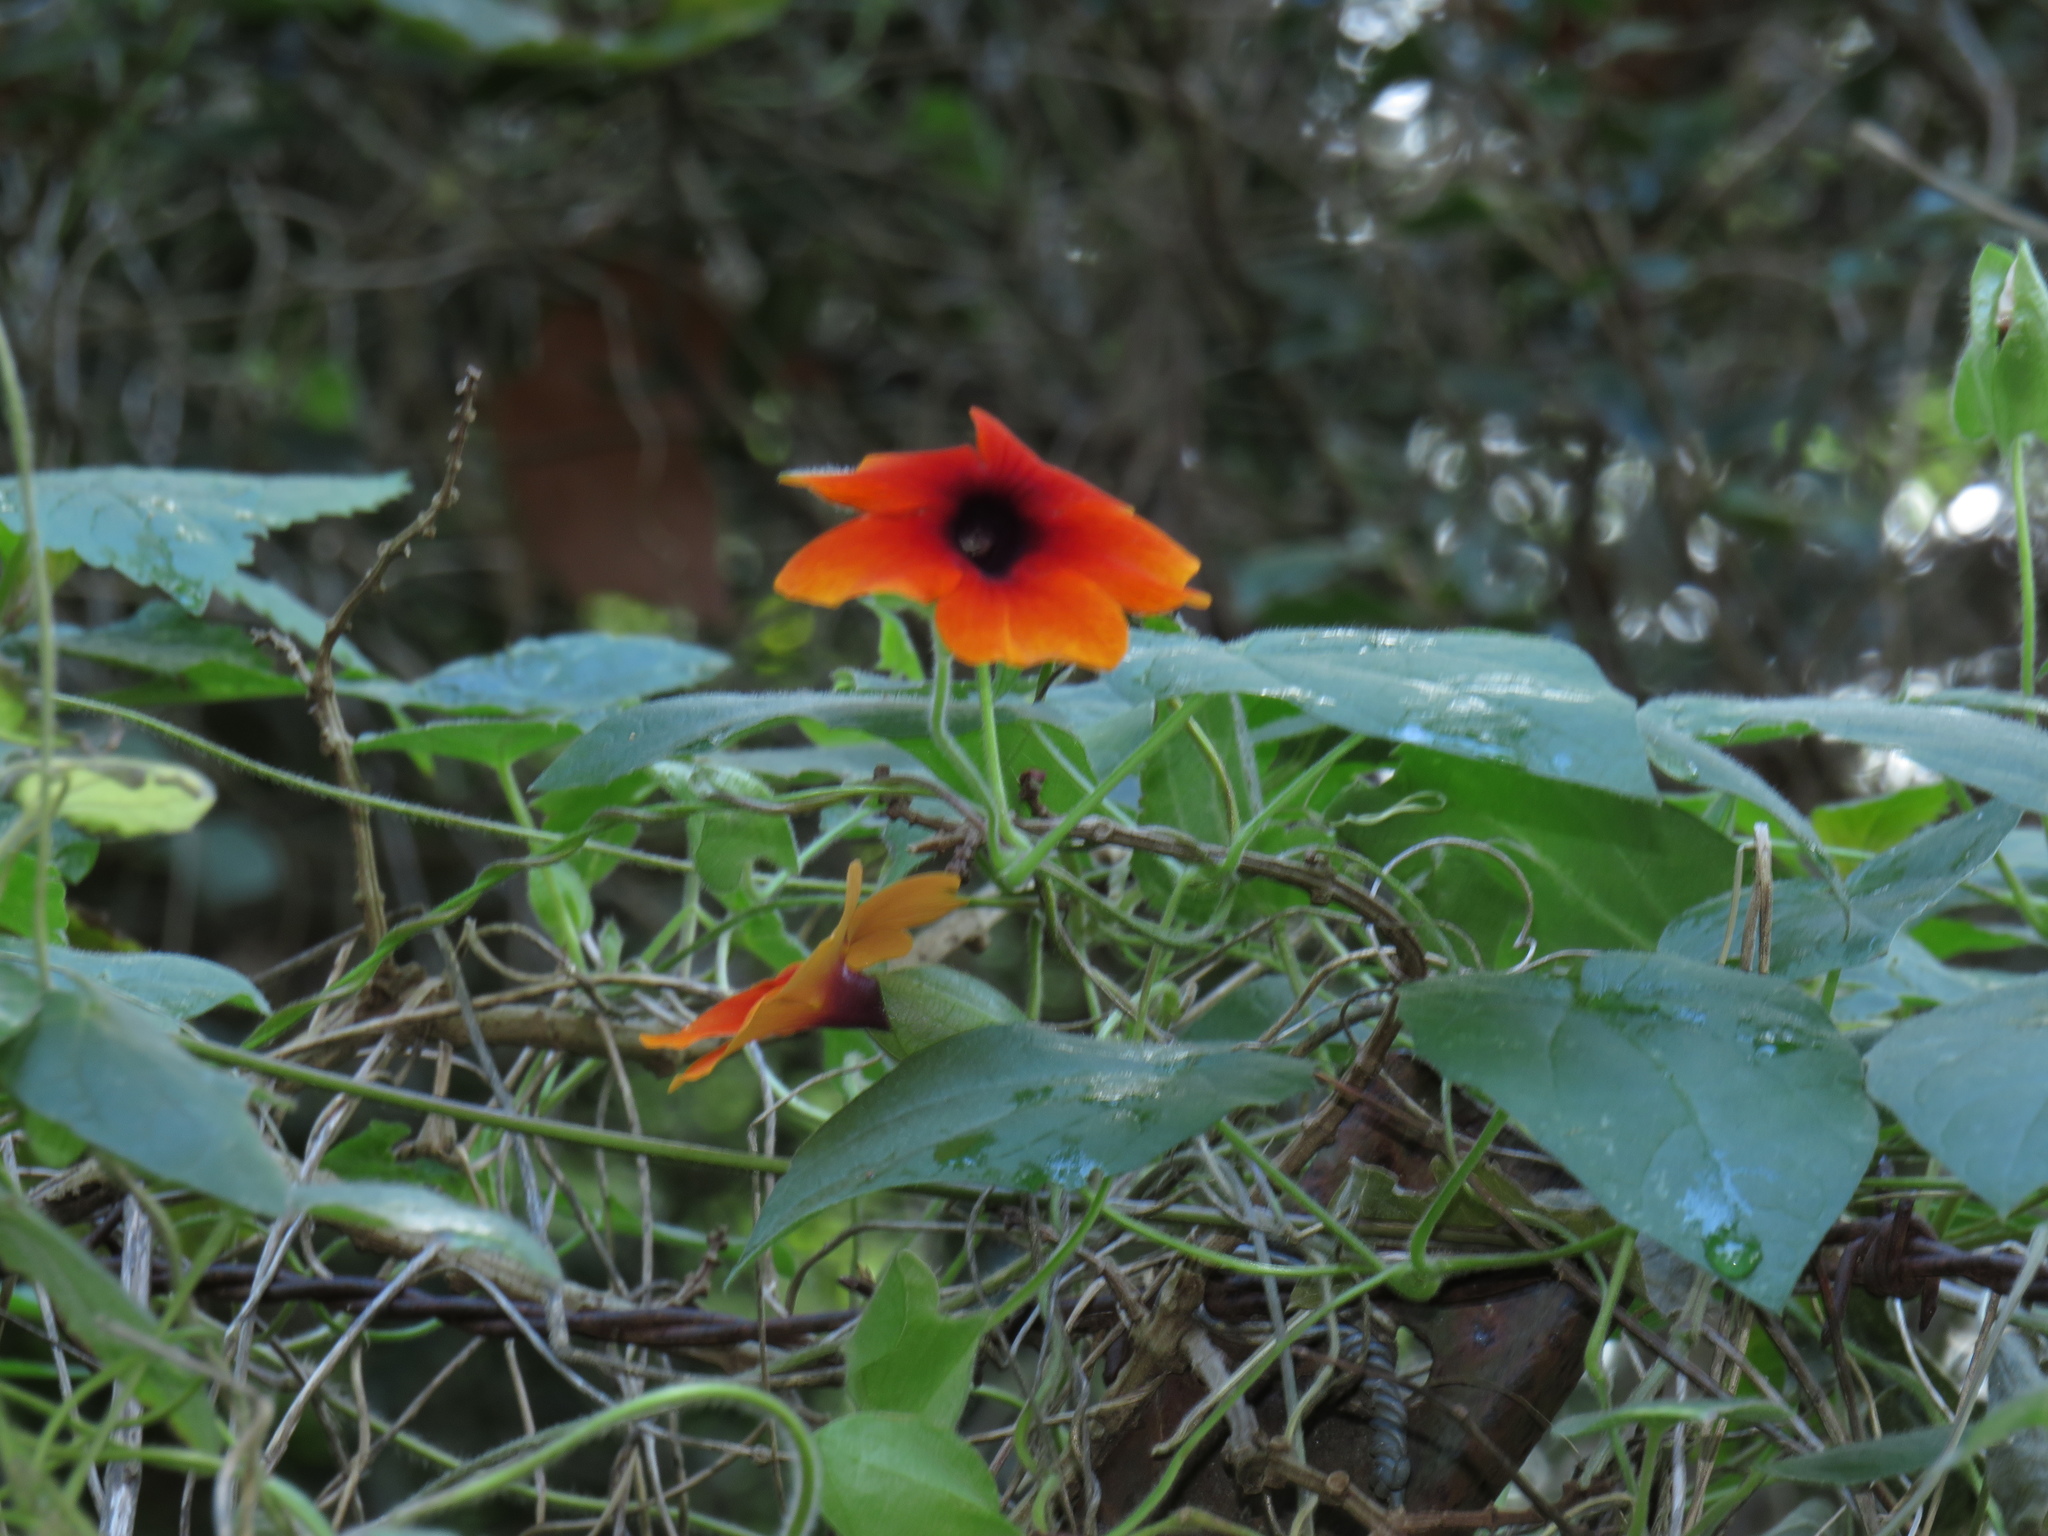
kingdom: Plantae
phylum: Tracheophyta
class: Magnoliopsida
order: Lamiales
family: Acanthaceae
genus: Thunbergia
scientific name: Thunbergia alata
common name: Blackeyed susan vine
